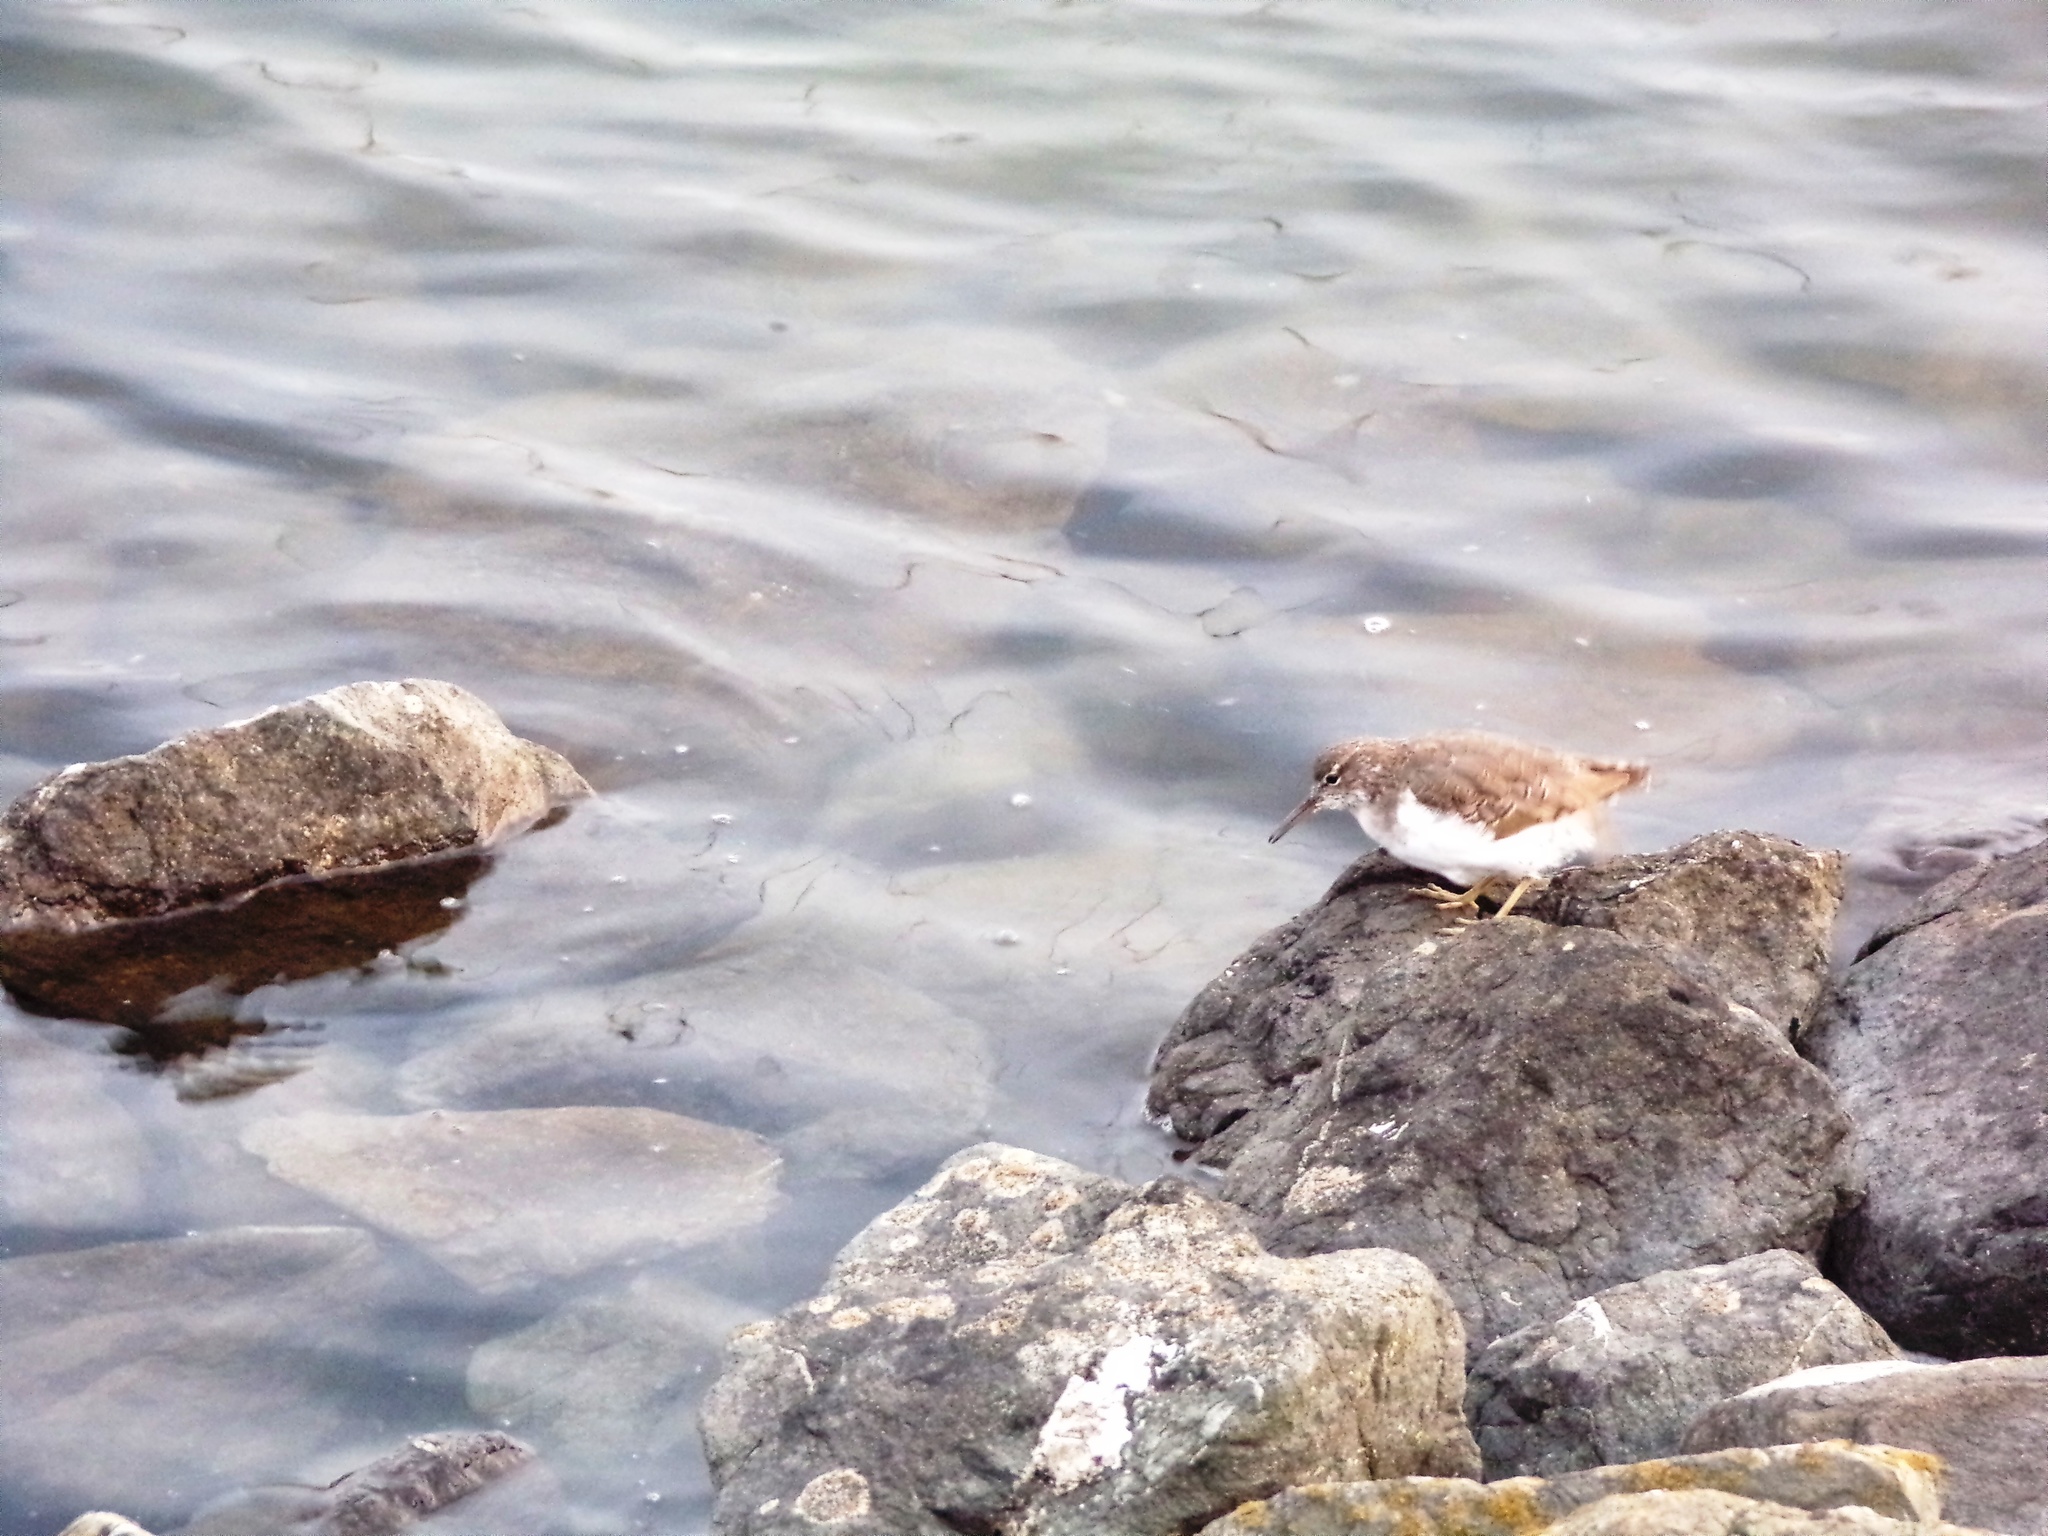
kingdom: Animalia
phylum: Chordata
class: Aves
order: Charadriiformes
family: Scolopacidae
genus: Actitis
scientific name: Actitis macularius
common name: Spotted sandpiper
